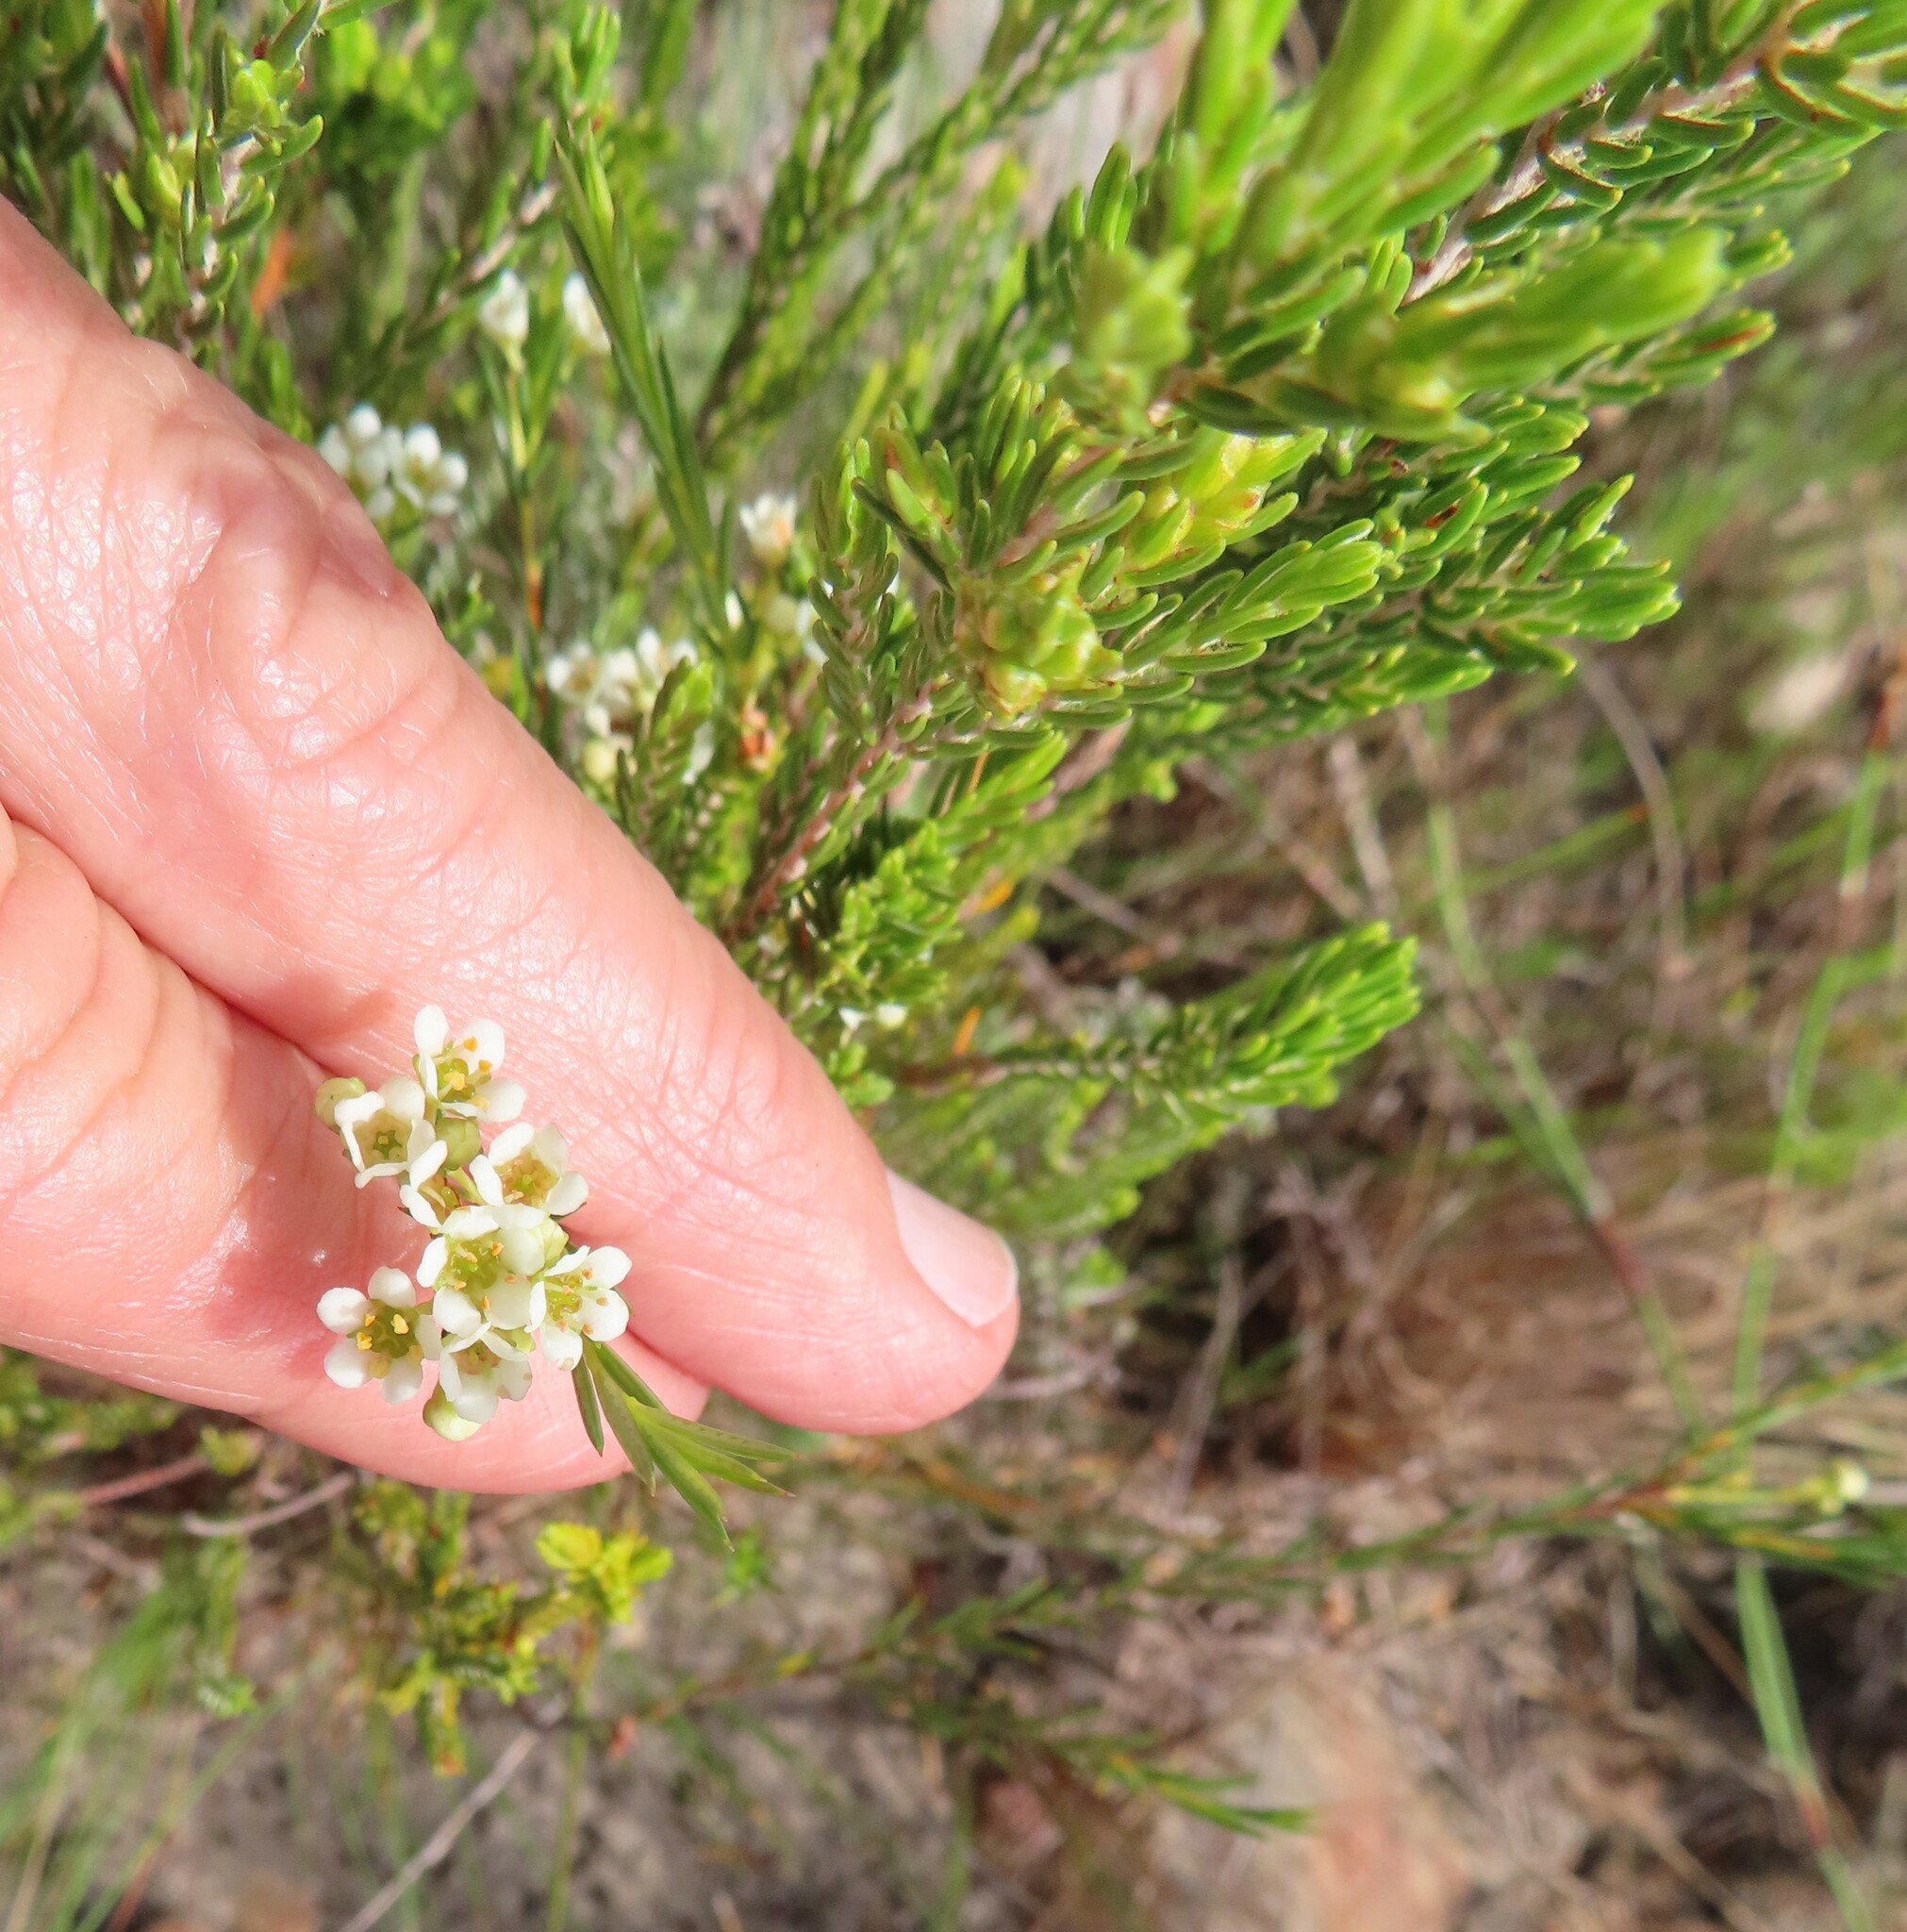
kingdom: Plantae
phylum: Tracheophyta
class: Magnoliopsida
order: Sapindales
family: Rutaceae
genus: Diosma
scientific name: Diosma oppositifolia
